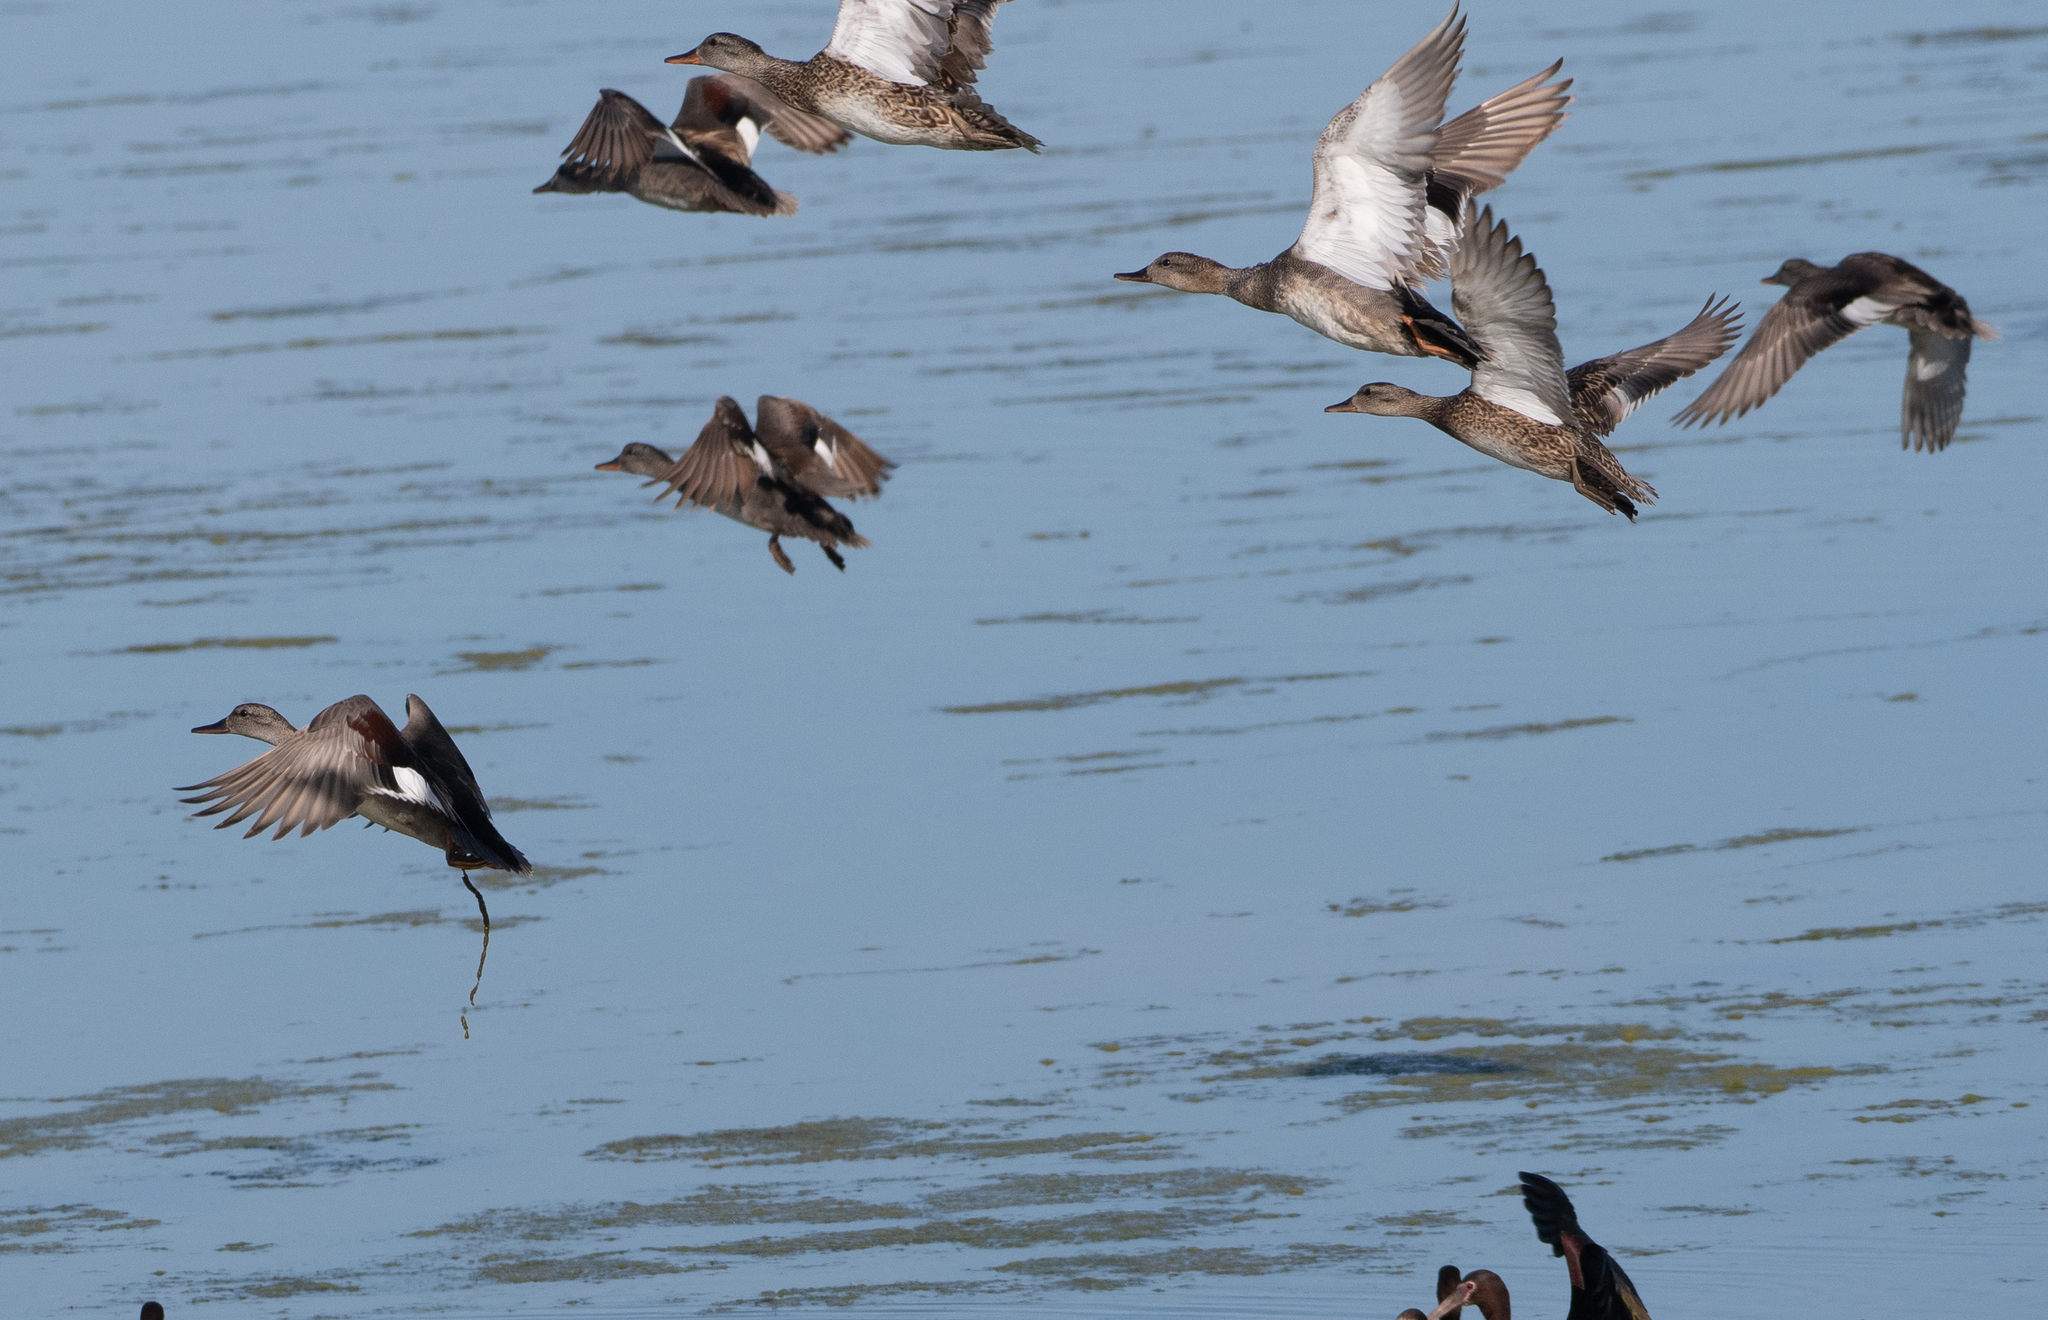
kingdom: Animalia
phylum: Chordata
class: Aves
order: Anseriformes
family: Anatidae
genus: Mareca
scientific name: Mareca strepera
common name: Gadwall
